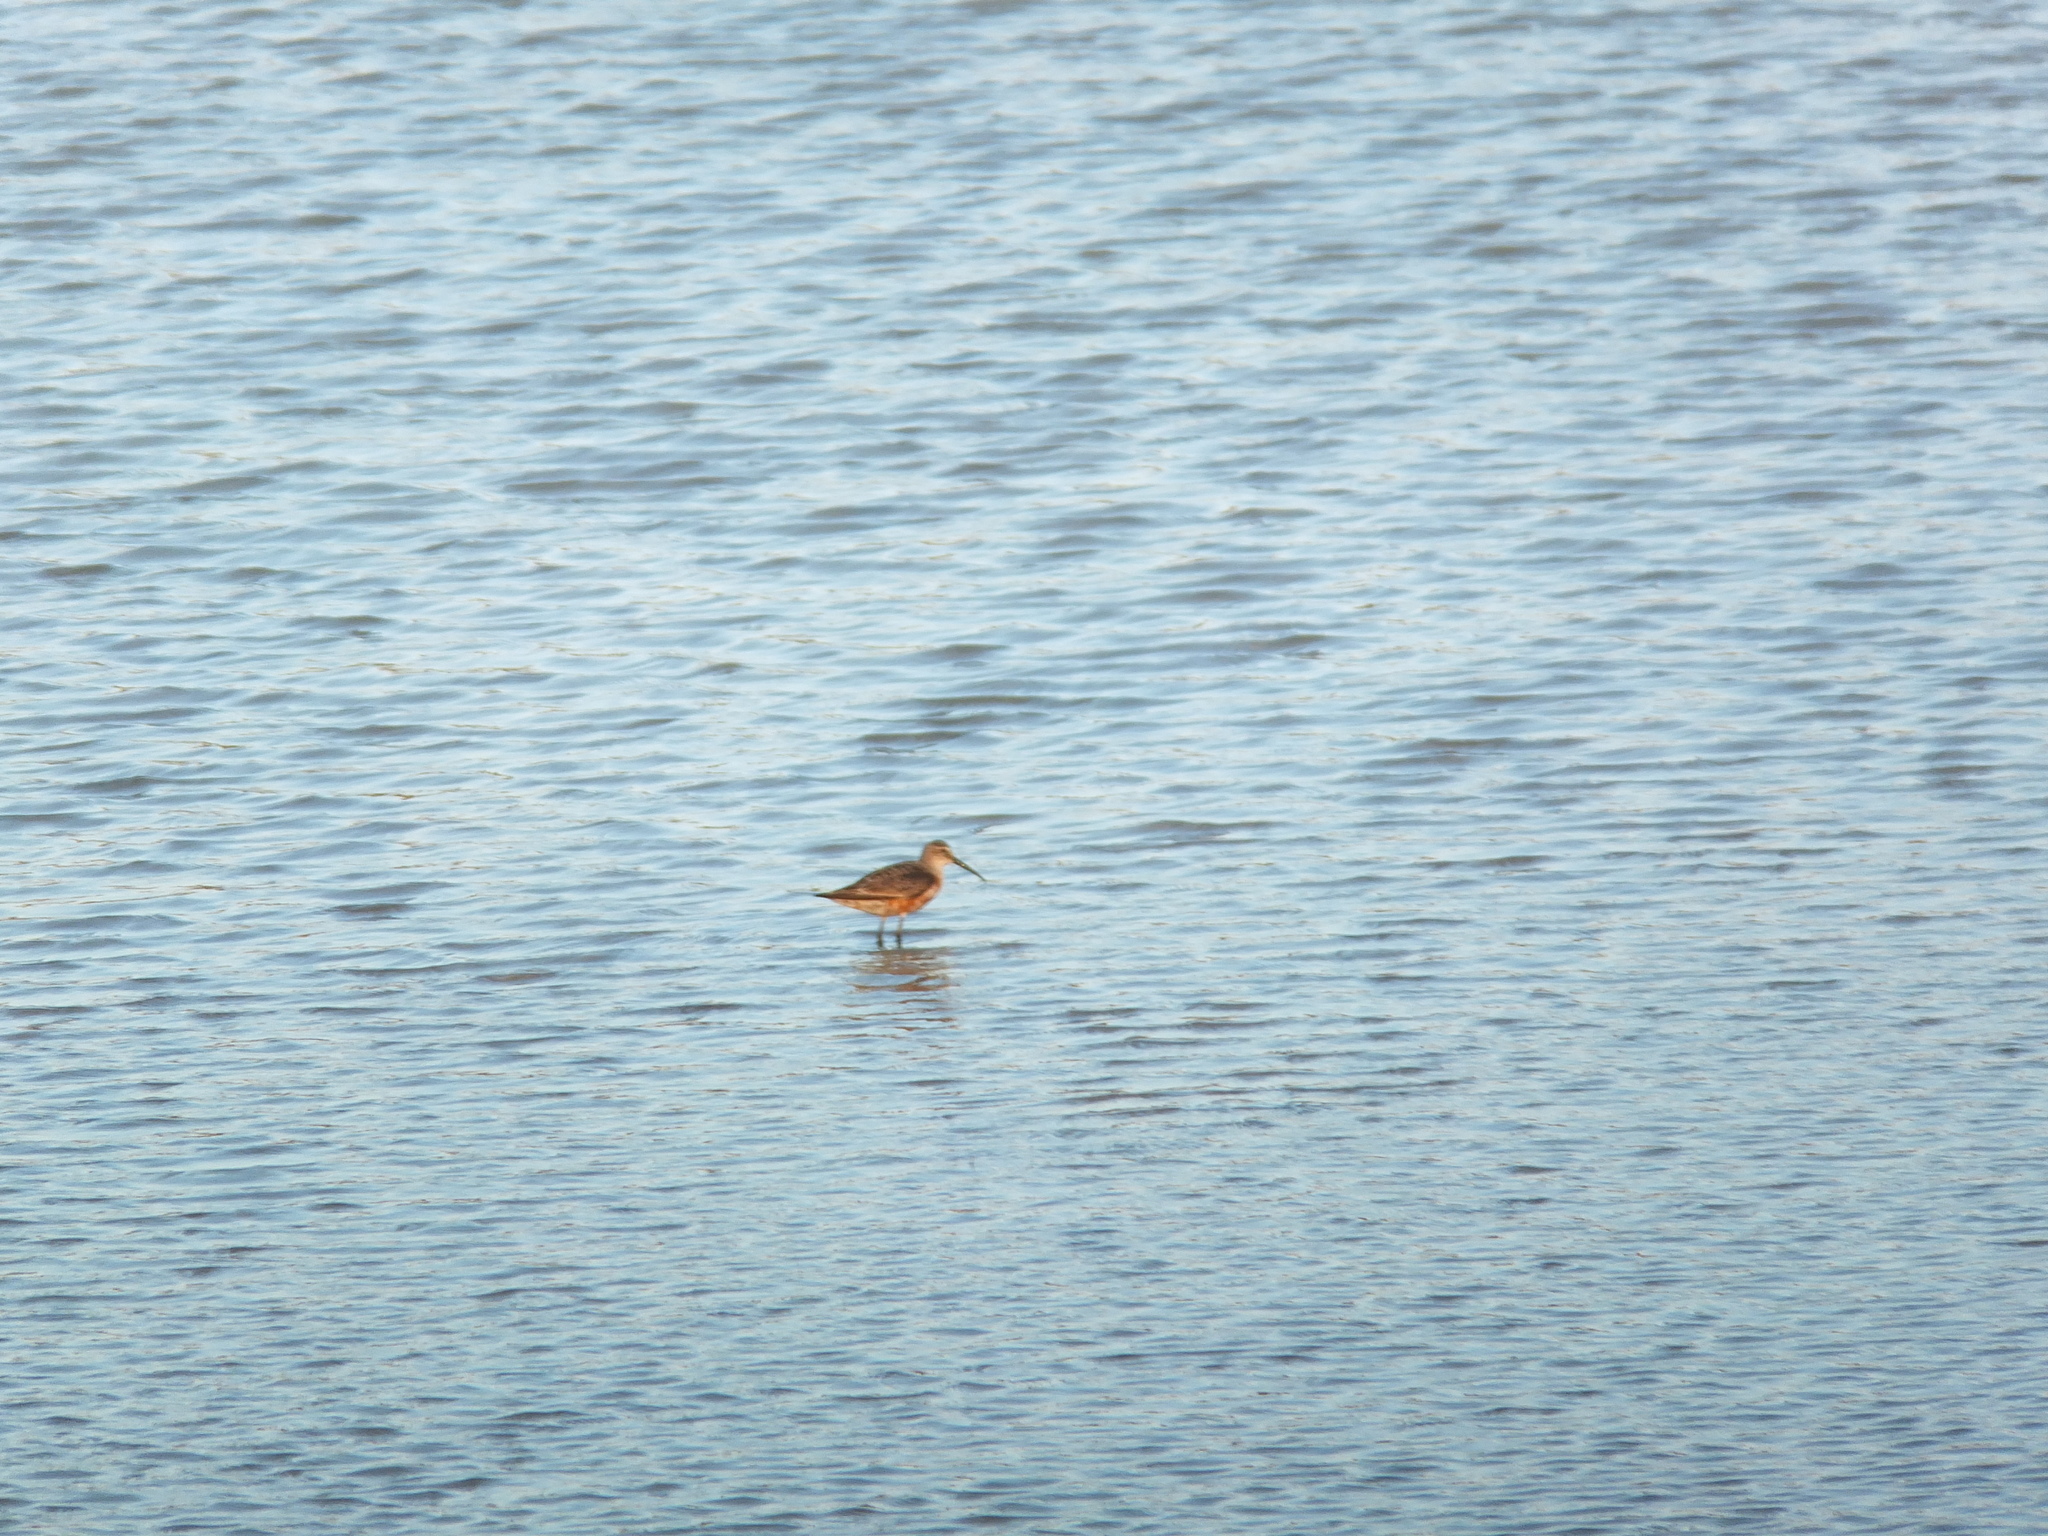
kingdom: Animalia
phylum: Chordata
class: Aves
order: Charadriiformes
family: Scolopacidae
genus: Calidris
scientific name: Calidris ferruginea
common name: Curlew sandpiper
